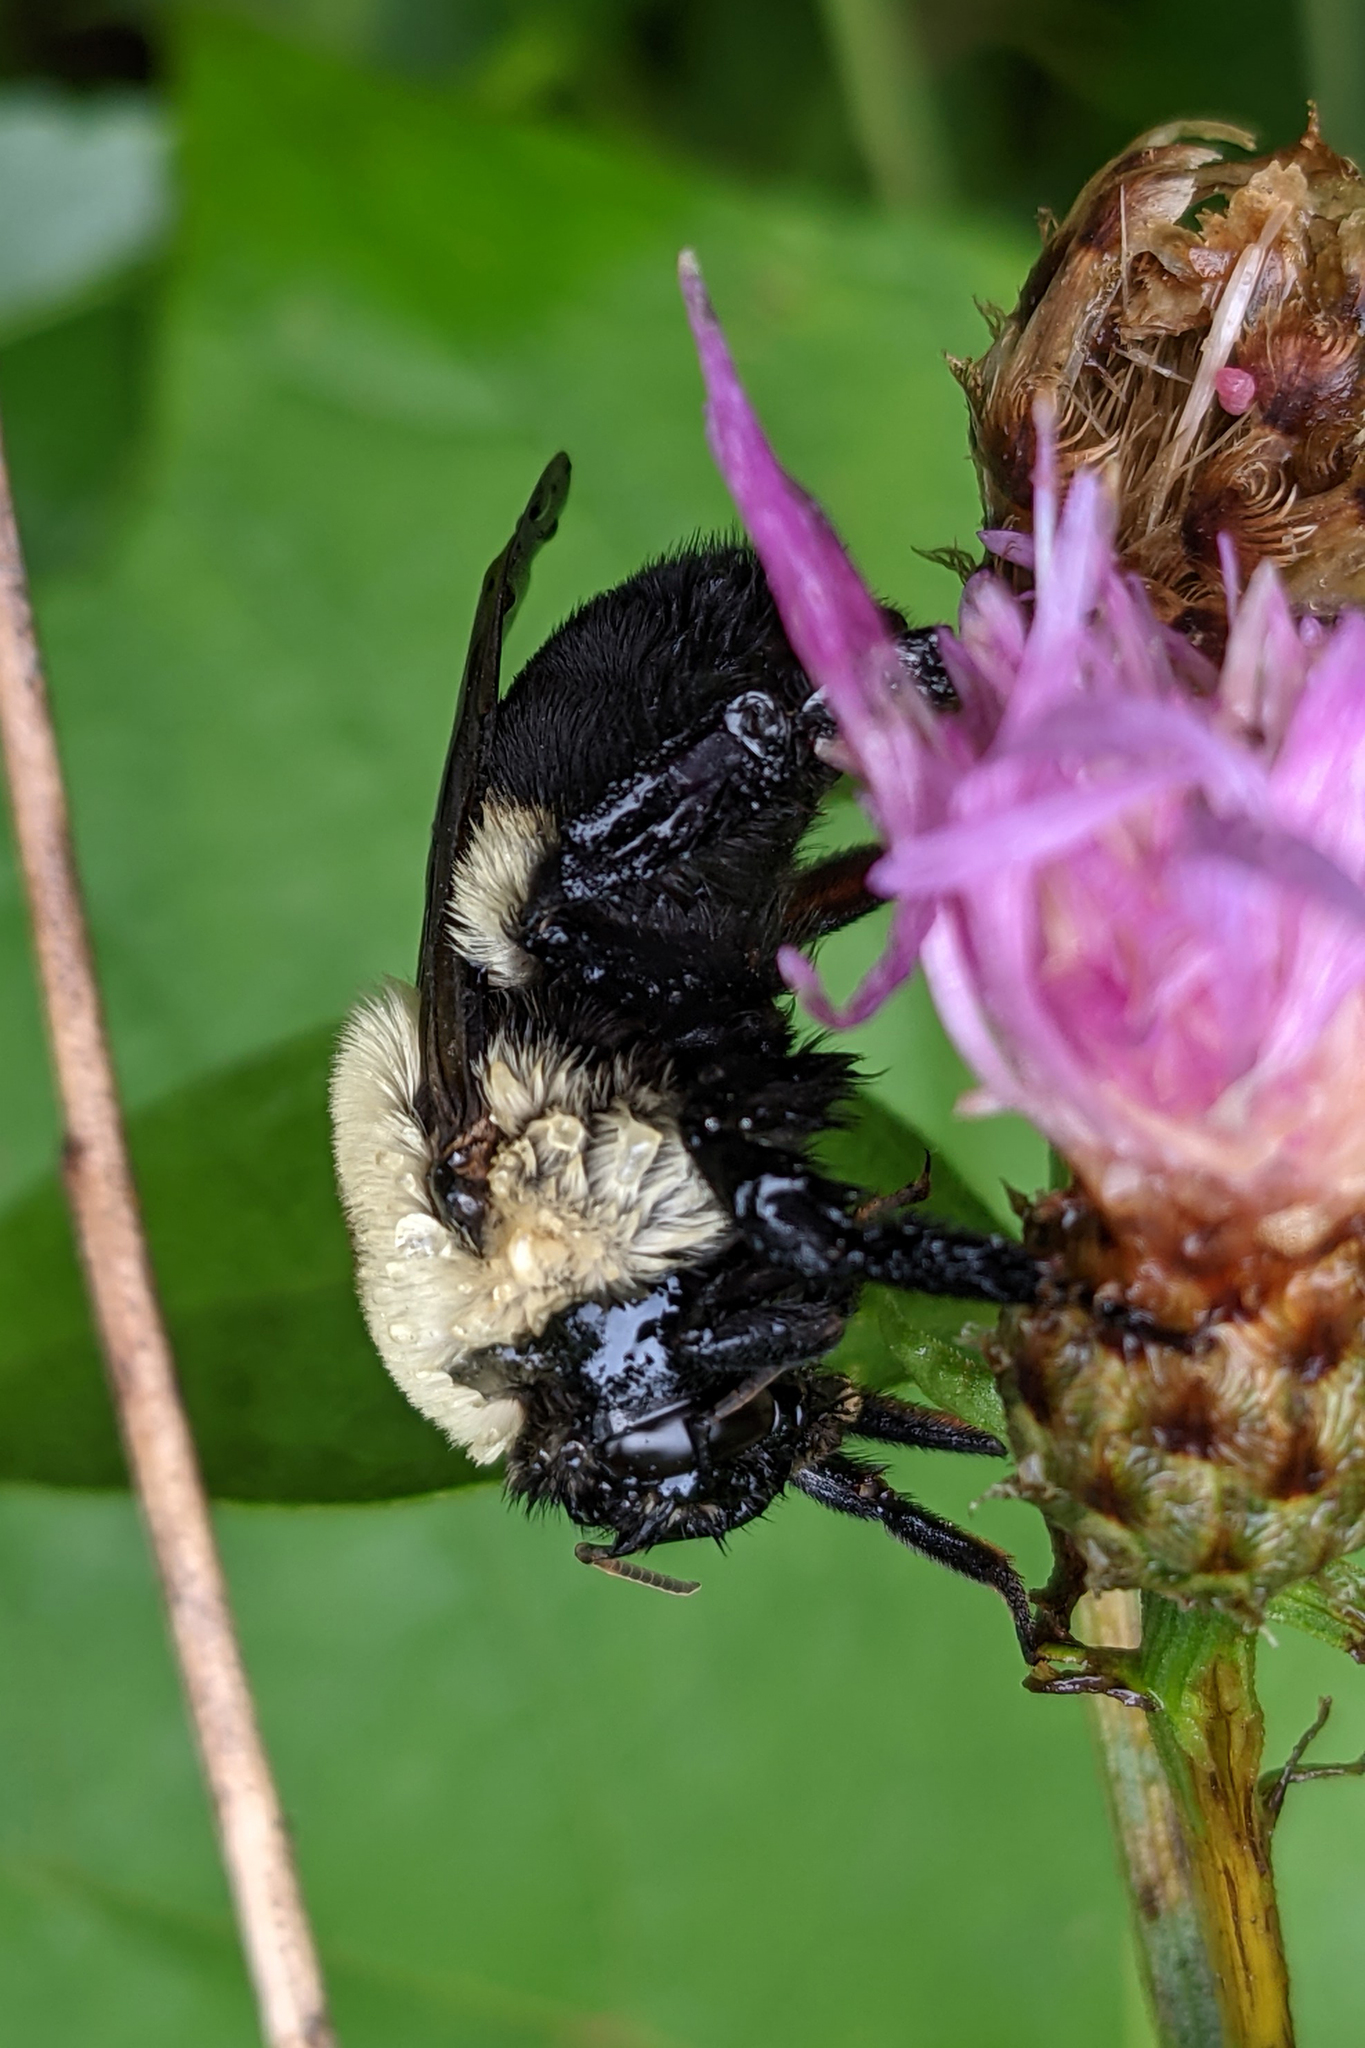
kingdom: Animalia
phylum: Arthropoda
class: Insecta
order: Hymenoptera
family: Apidae
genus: Bombus
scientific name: Bombus griseocollis
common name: Brown-belted bumble bee
